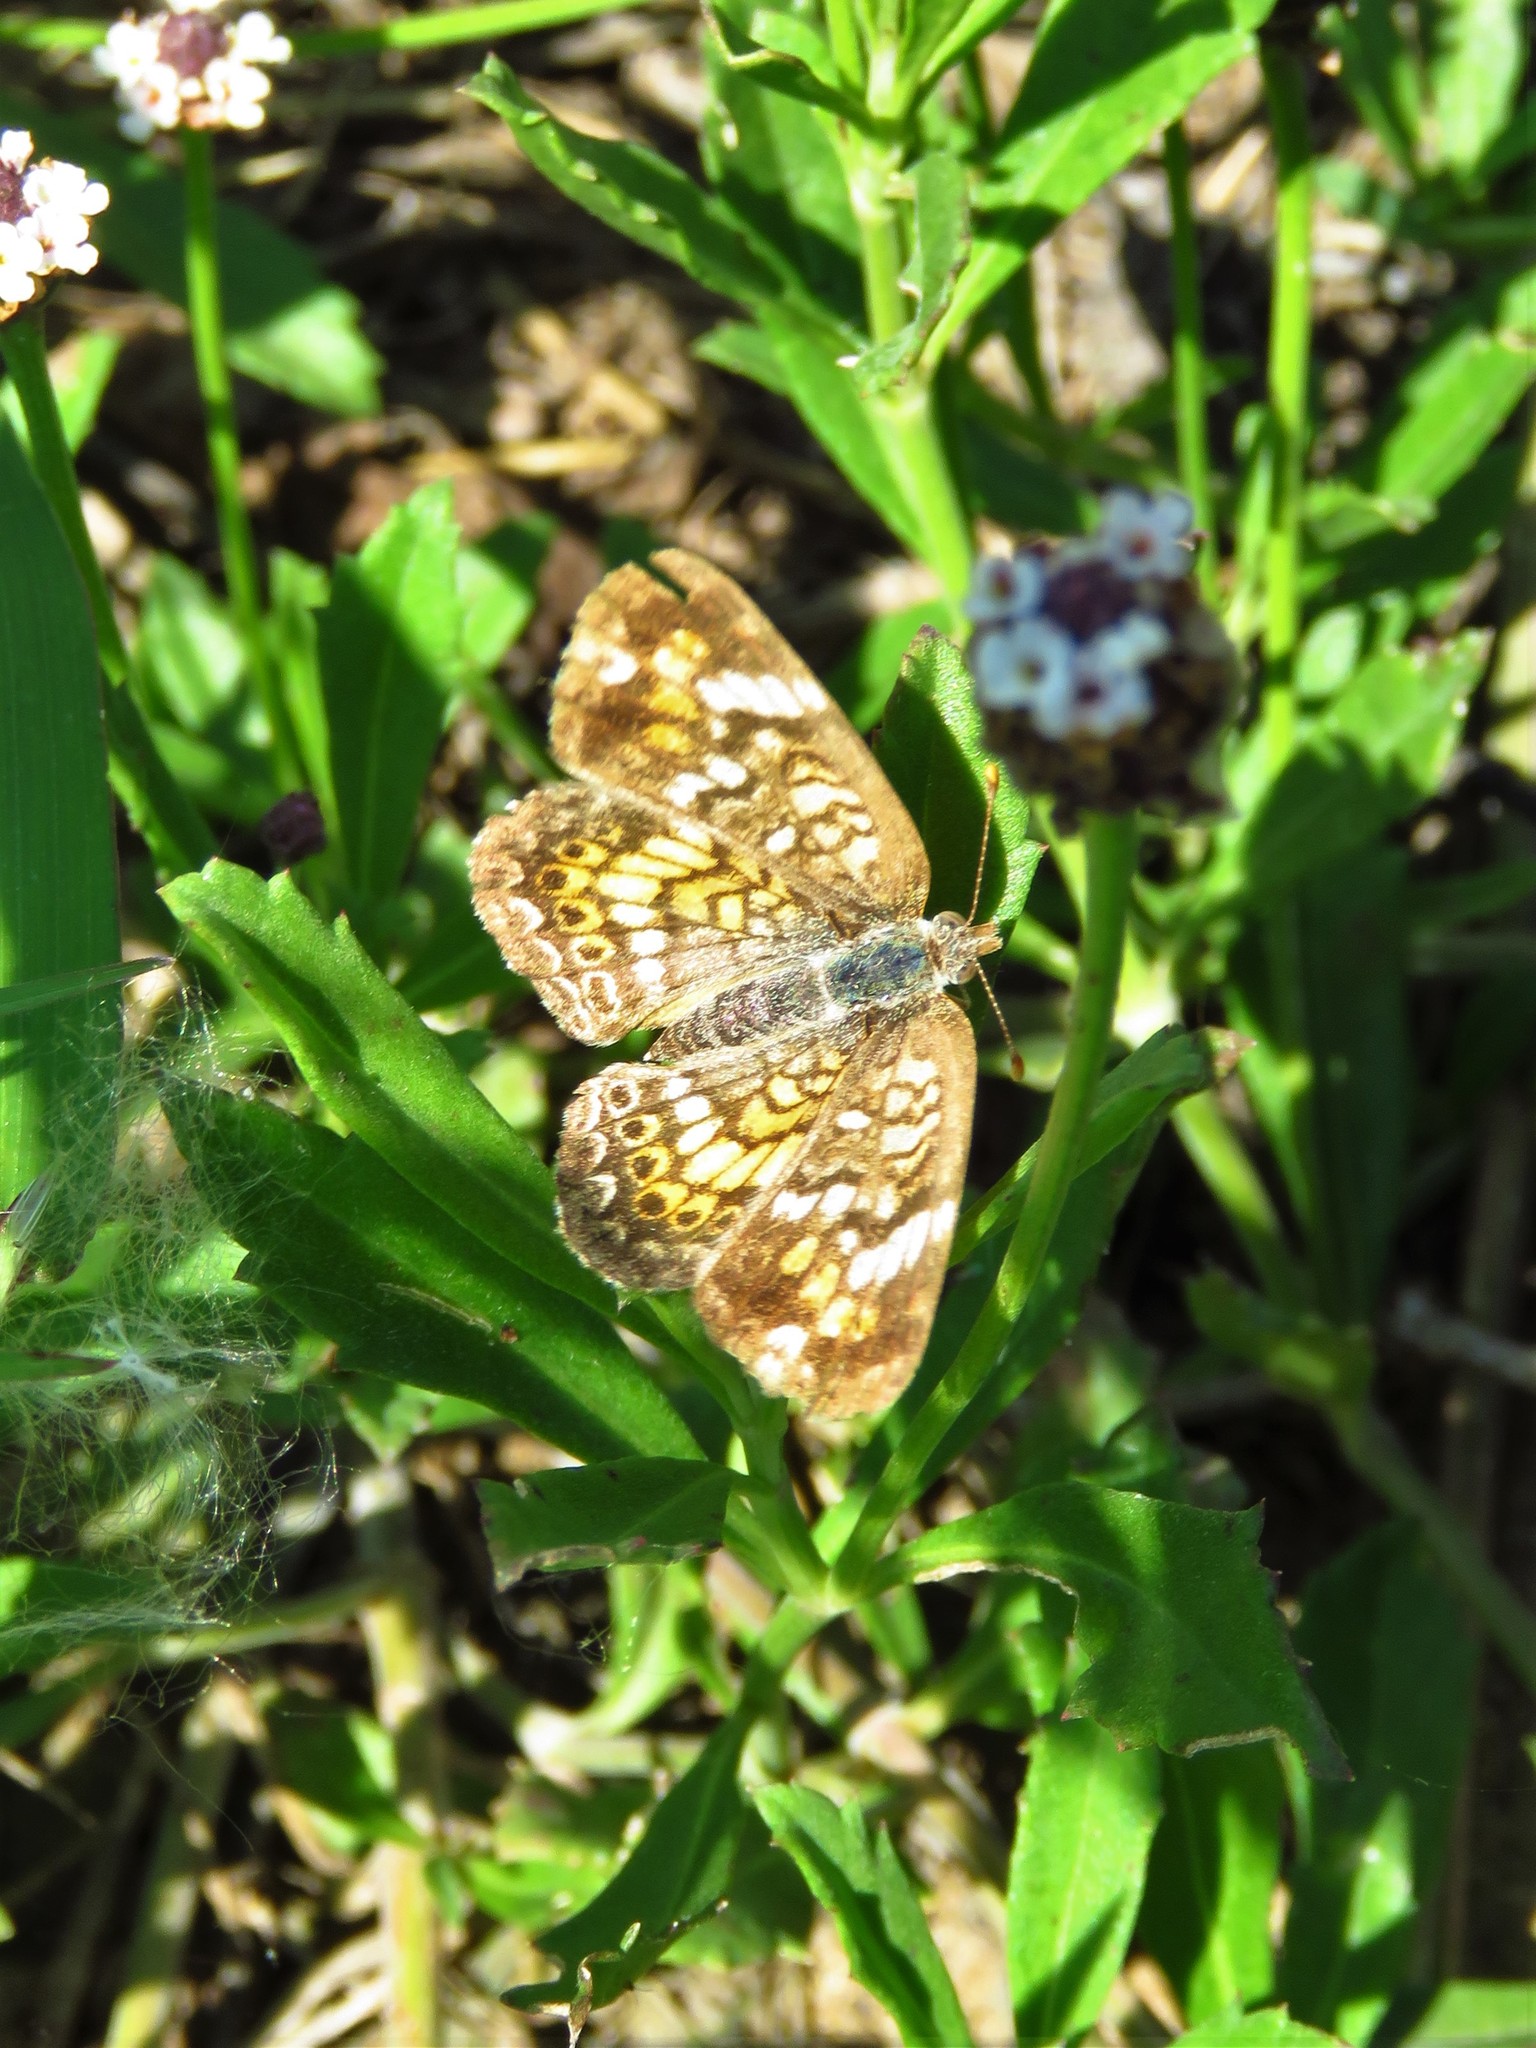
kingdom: Animalia
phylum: Arthropoda
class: Insecta
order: Lepidoptera
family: Nymphalidae
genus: Phyciodes
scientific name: Phyciodes phaon
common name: Phaon crescent
